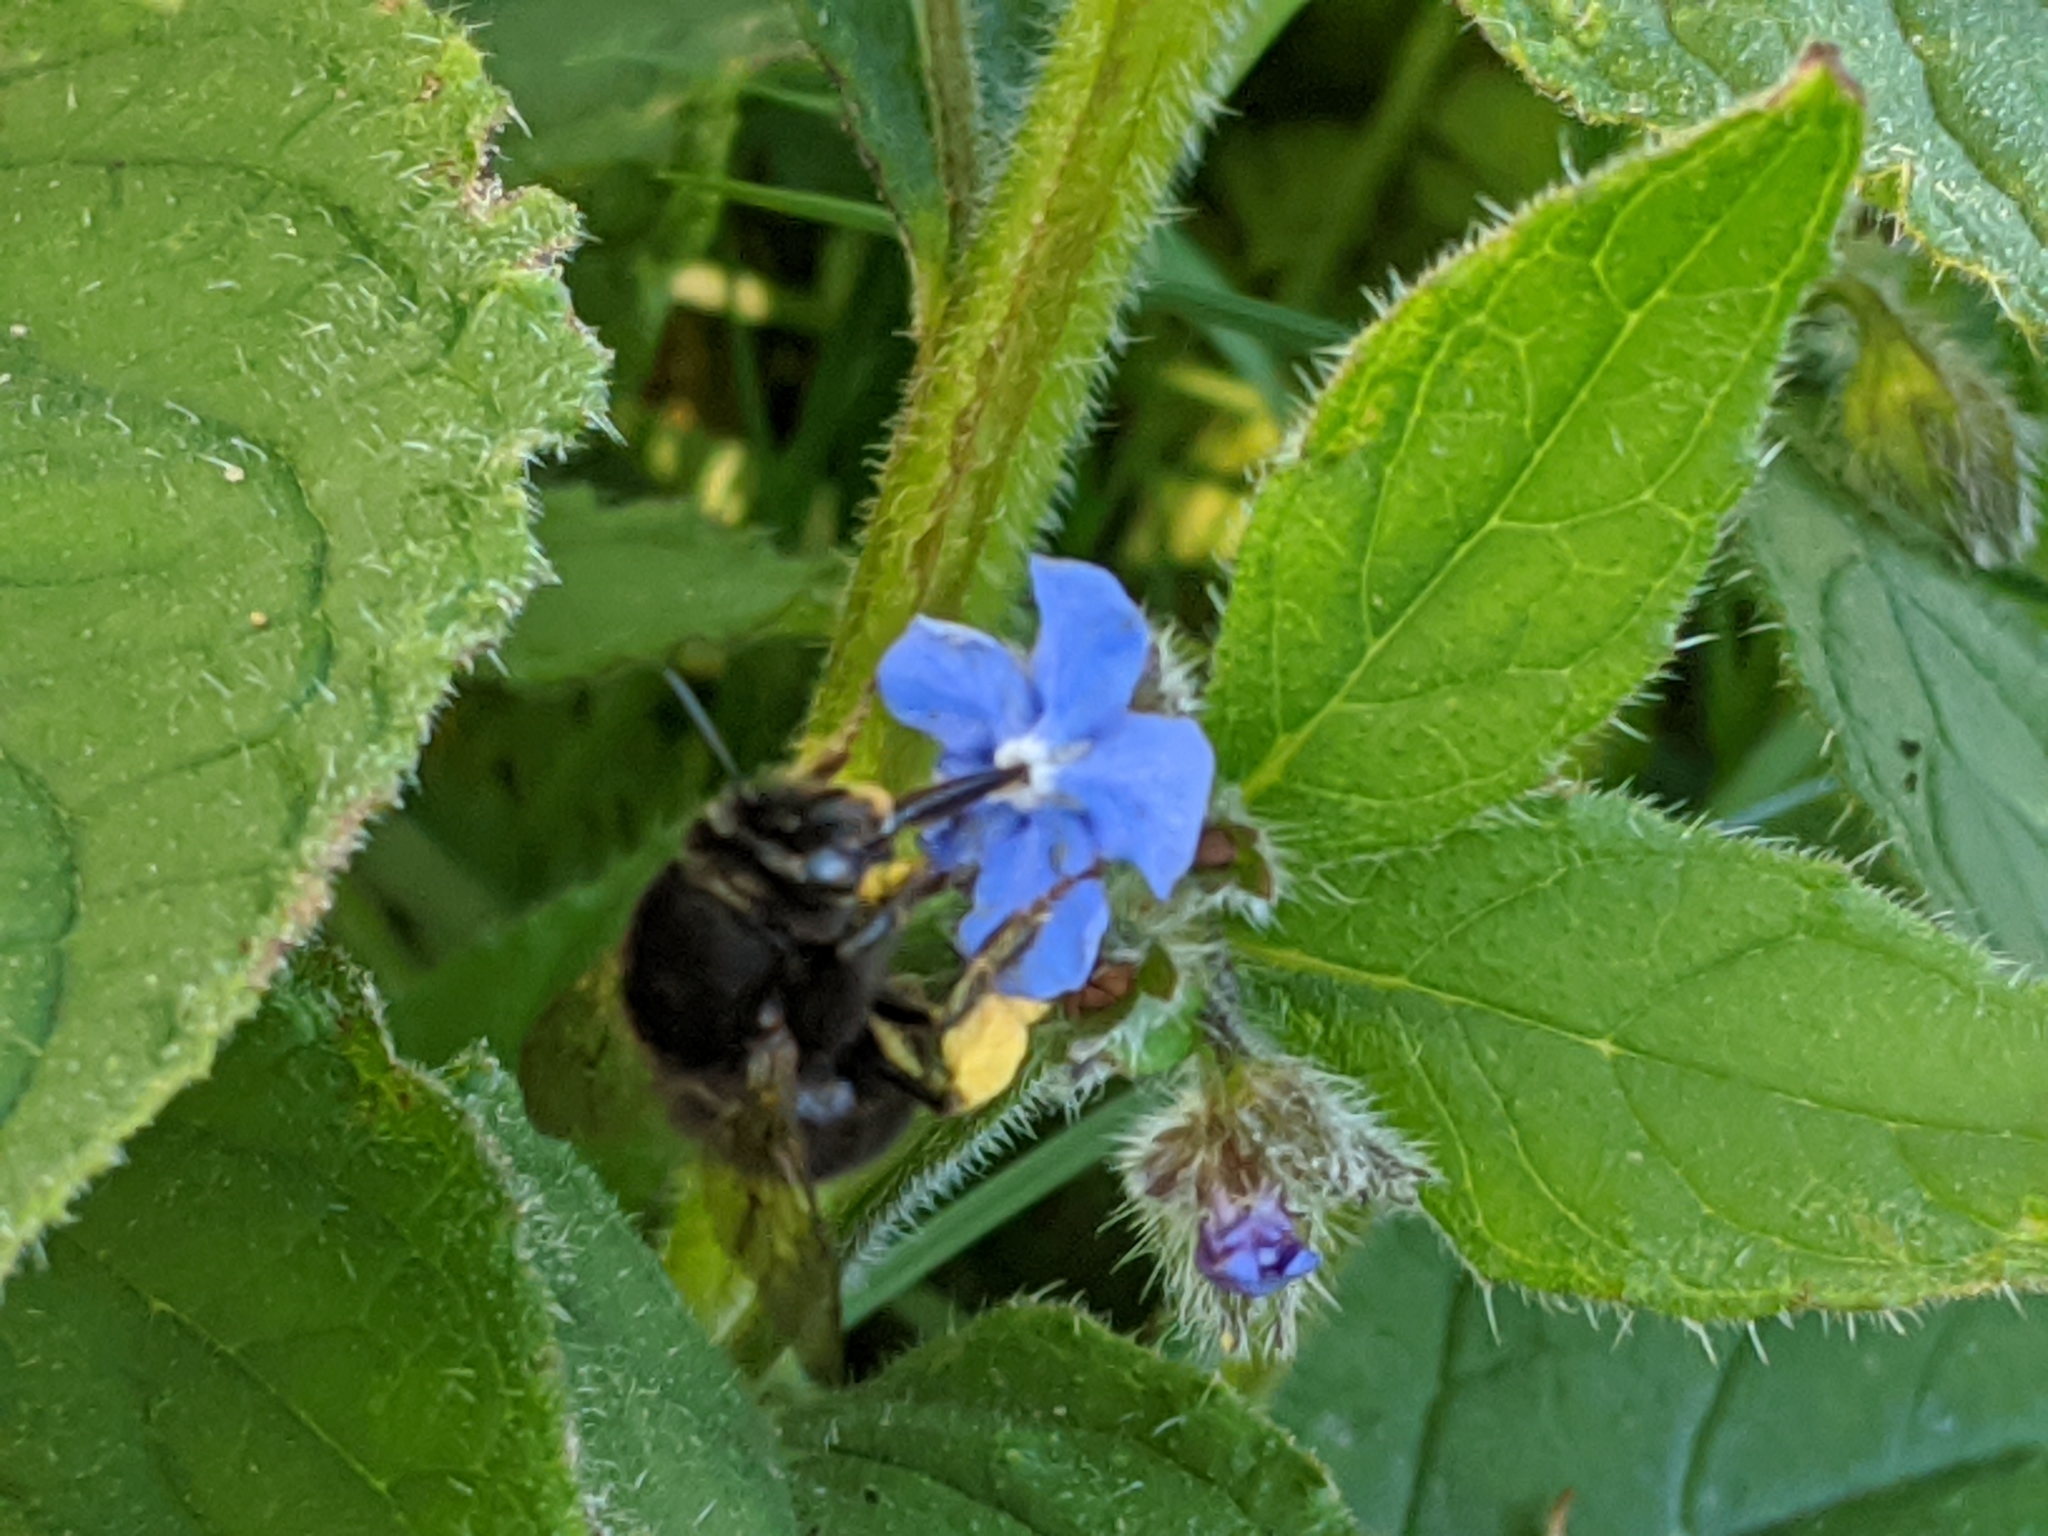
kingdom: Animalia
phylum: Arthropoda
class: Insecta
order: Hymenoptera
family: Apidae
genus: Anthophora
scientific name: Anthophora plumipes
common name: Hairy-footed flower bee
